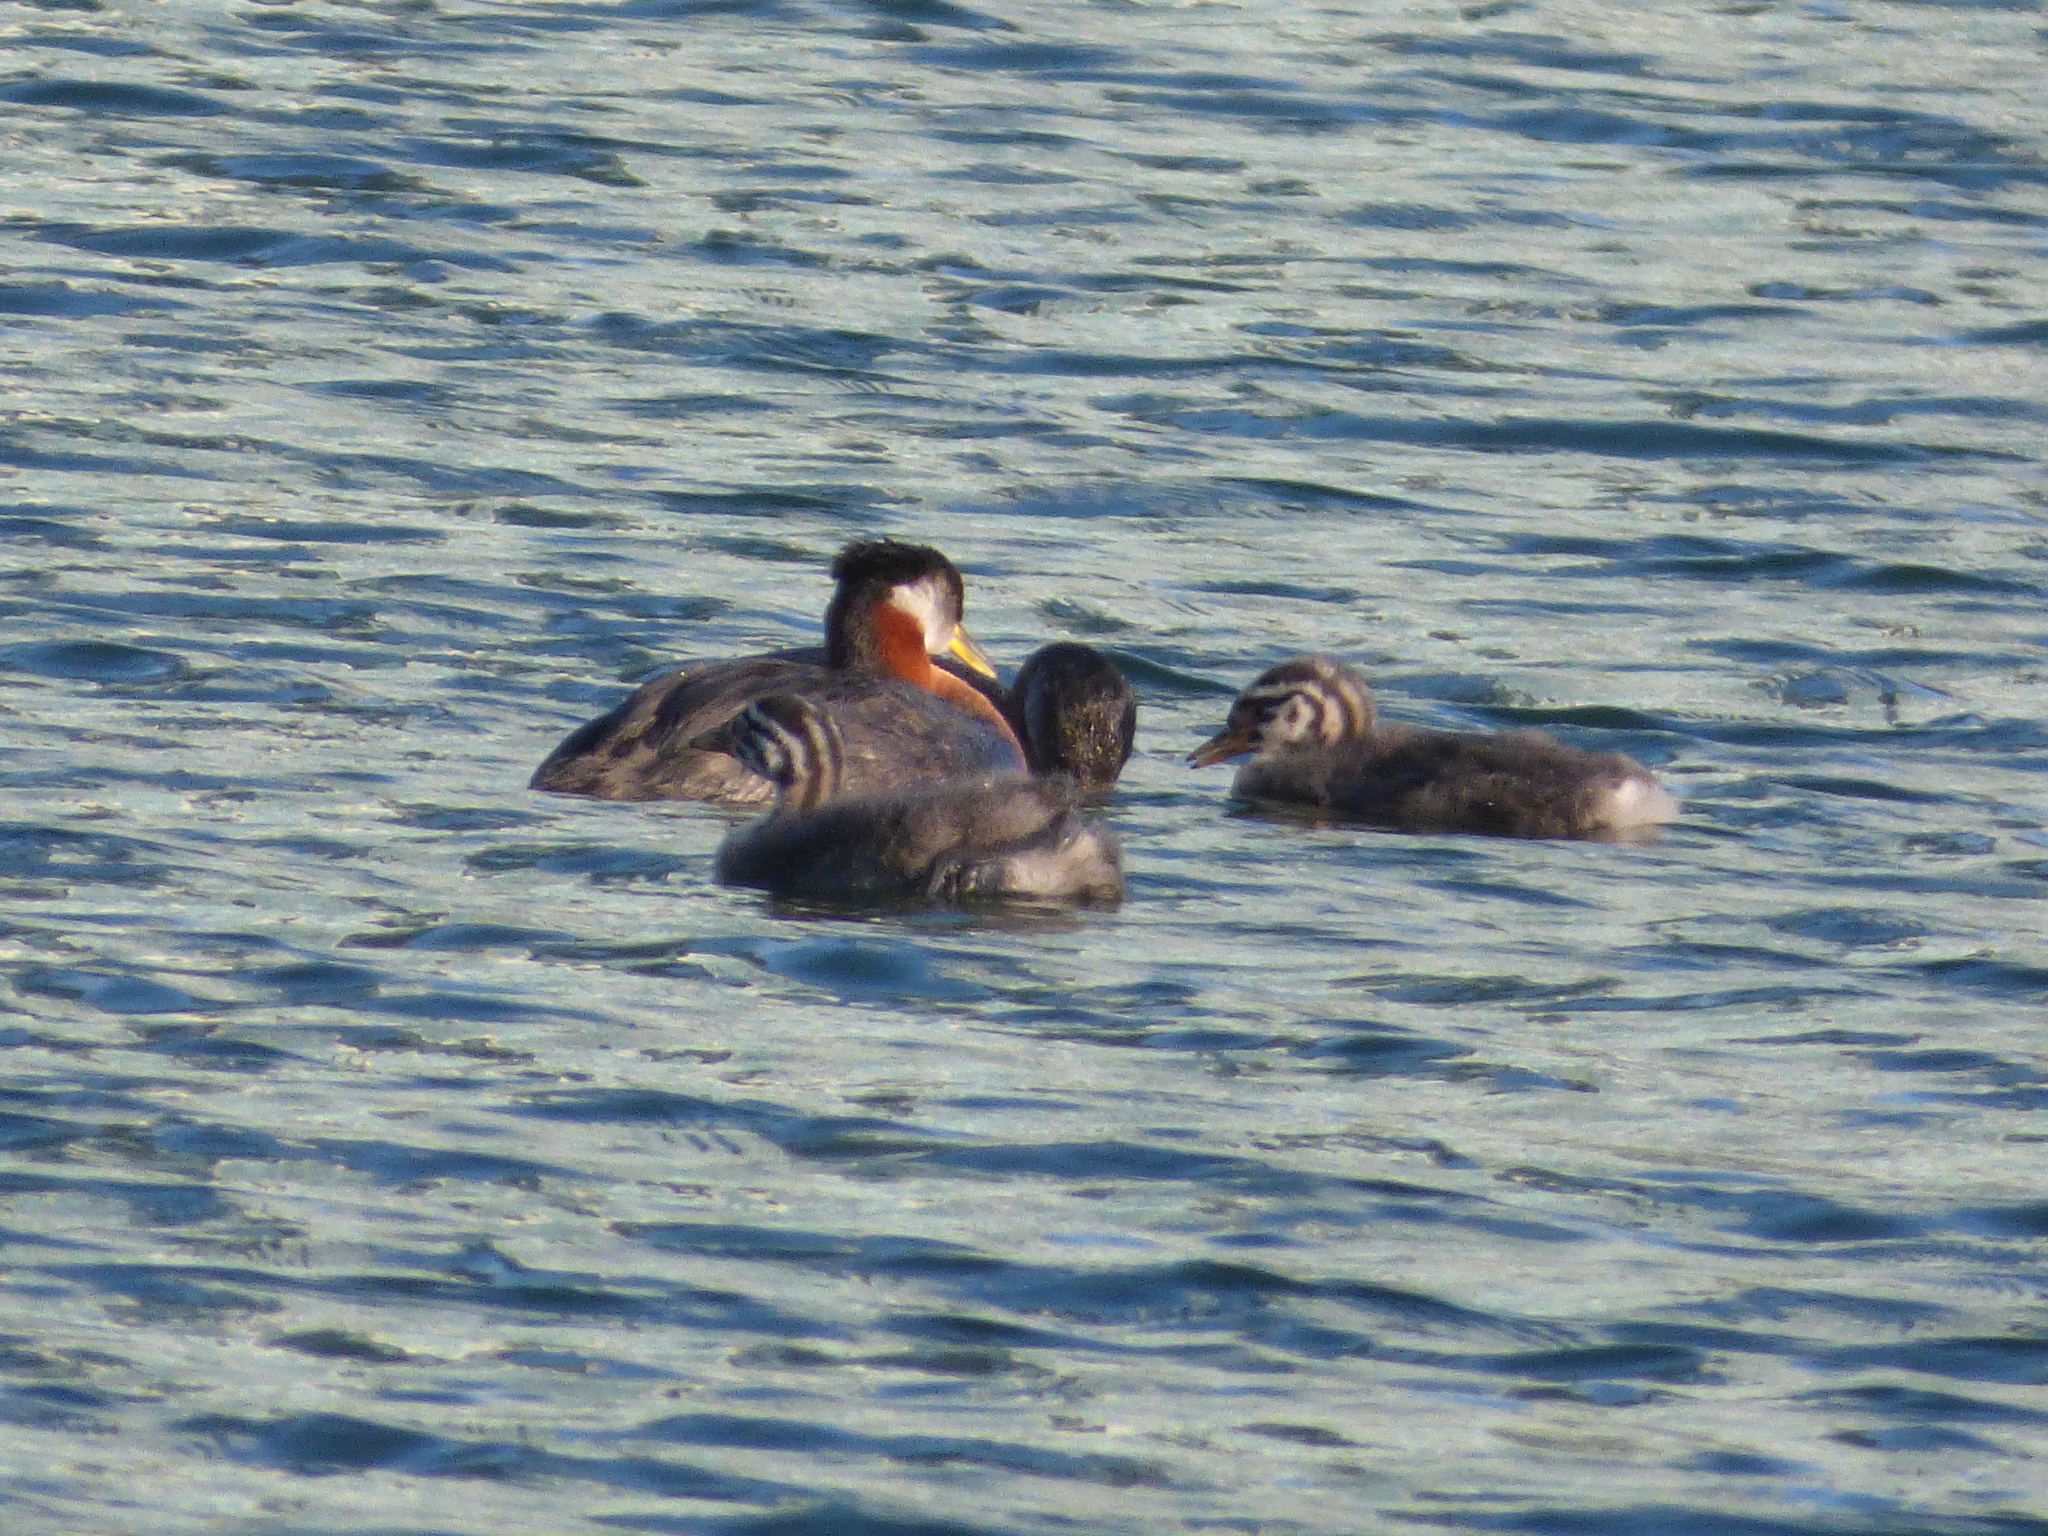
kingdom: Animalia
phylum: Chordata
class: Aves
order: Podicipediformes
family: Podicipedidae
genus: Podiceps
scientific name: Podiceps grisegena
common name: Red-necked grebe
